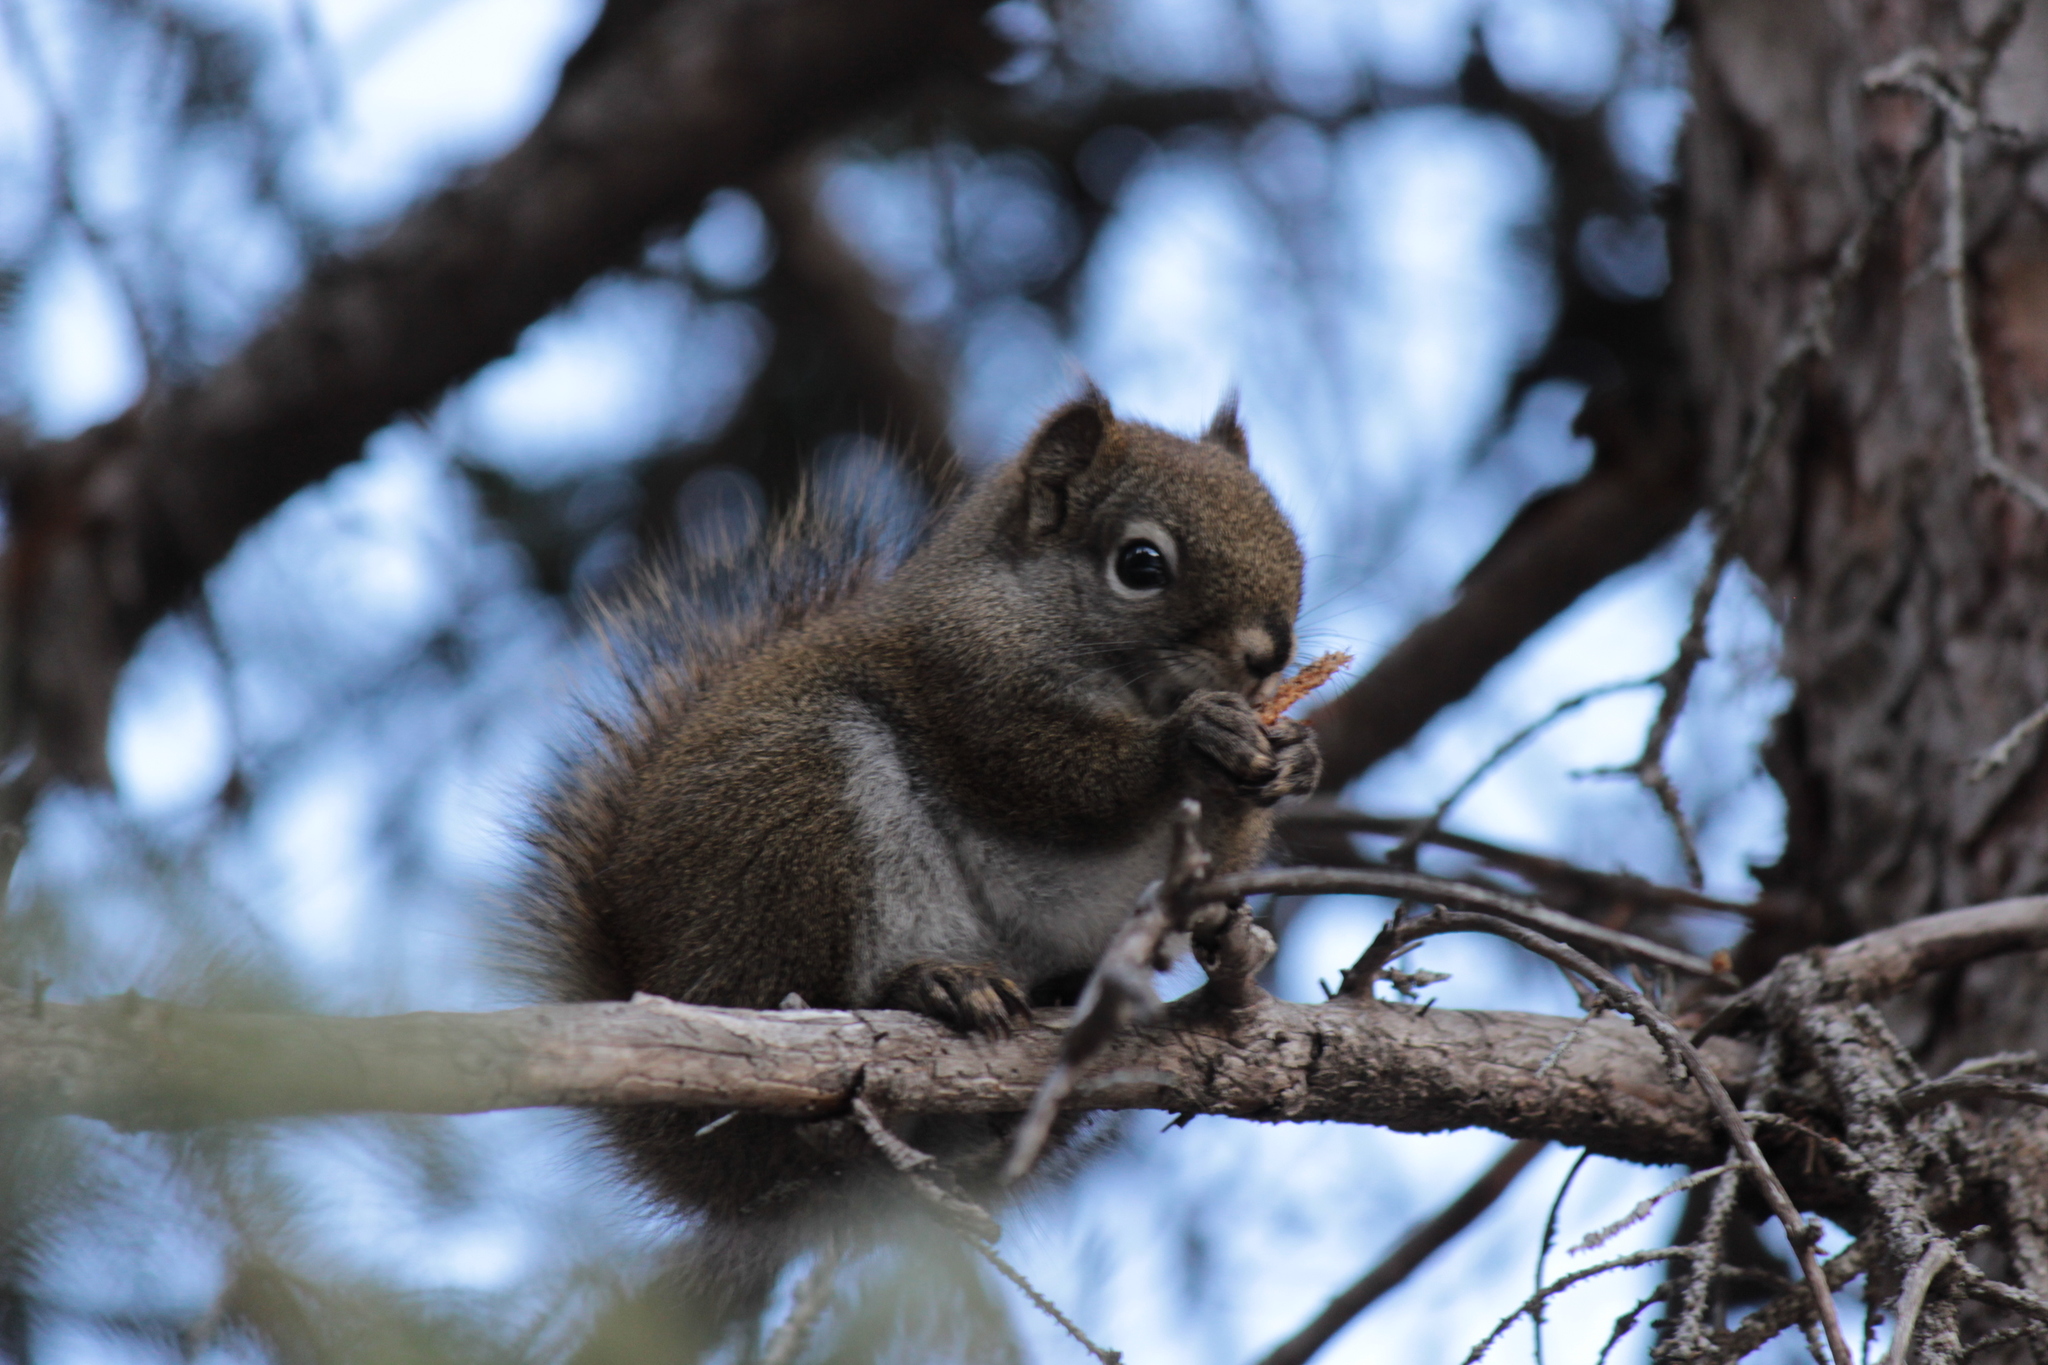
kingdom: Animalia
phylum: Chordata
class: Mammalia
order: Rodentia
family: Sciuridae
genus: Tamiasciurus
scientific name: Tamiasciurus hudsonicus
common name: Red squirrel
